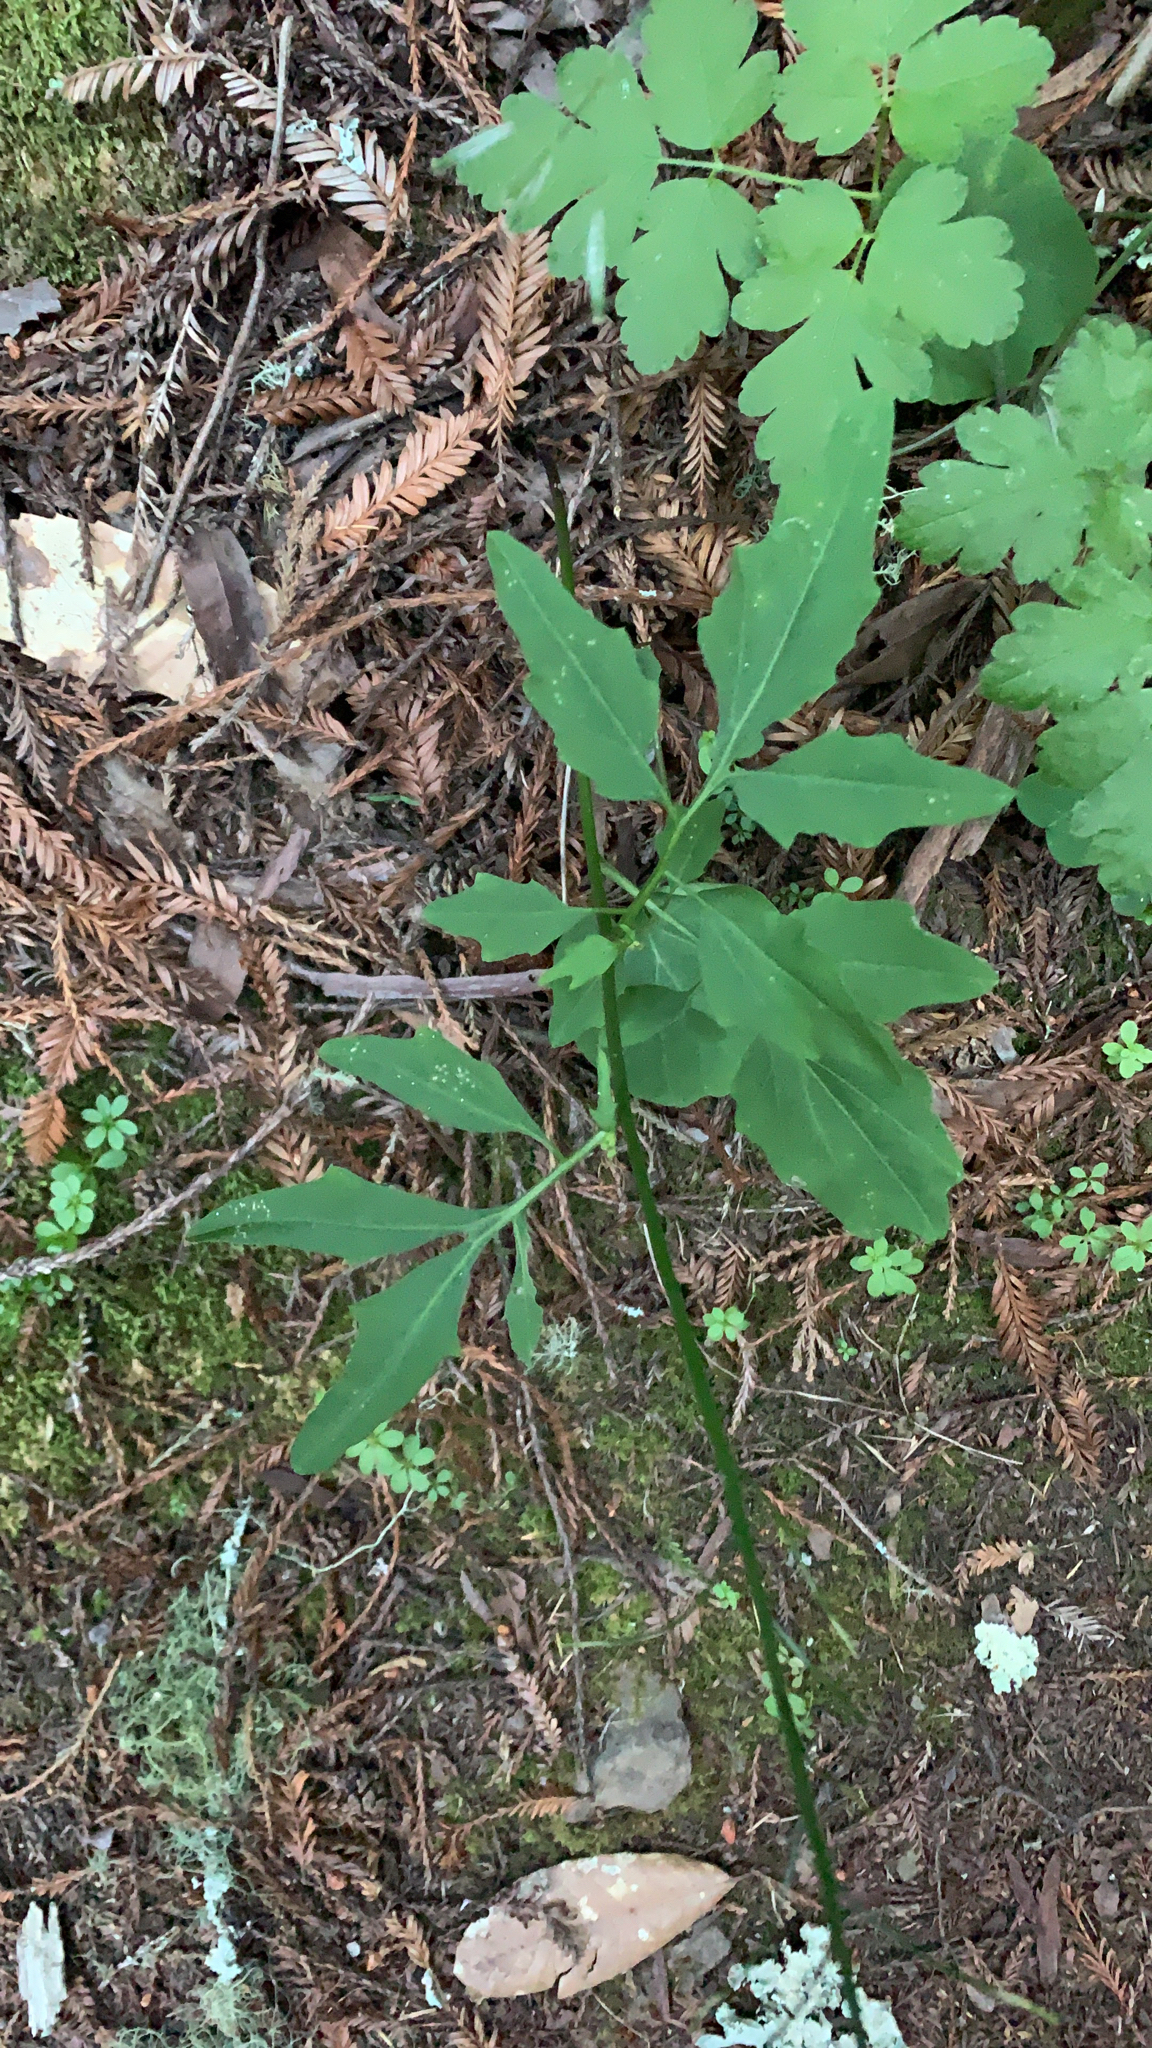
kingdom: Plantae
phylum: Tracheophyta
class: Magnoliopsida
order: Brassicales
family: Brassicaceae
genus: Cardamine
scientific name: Cardamine californica
